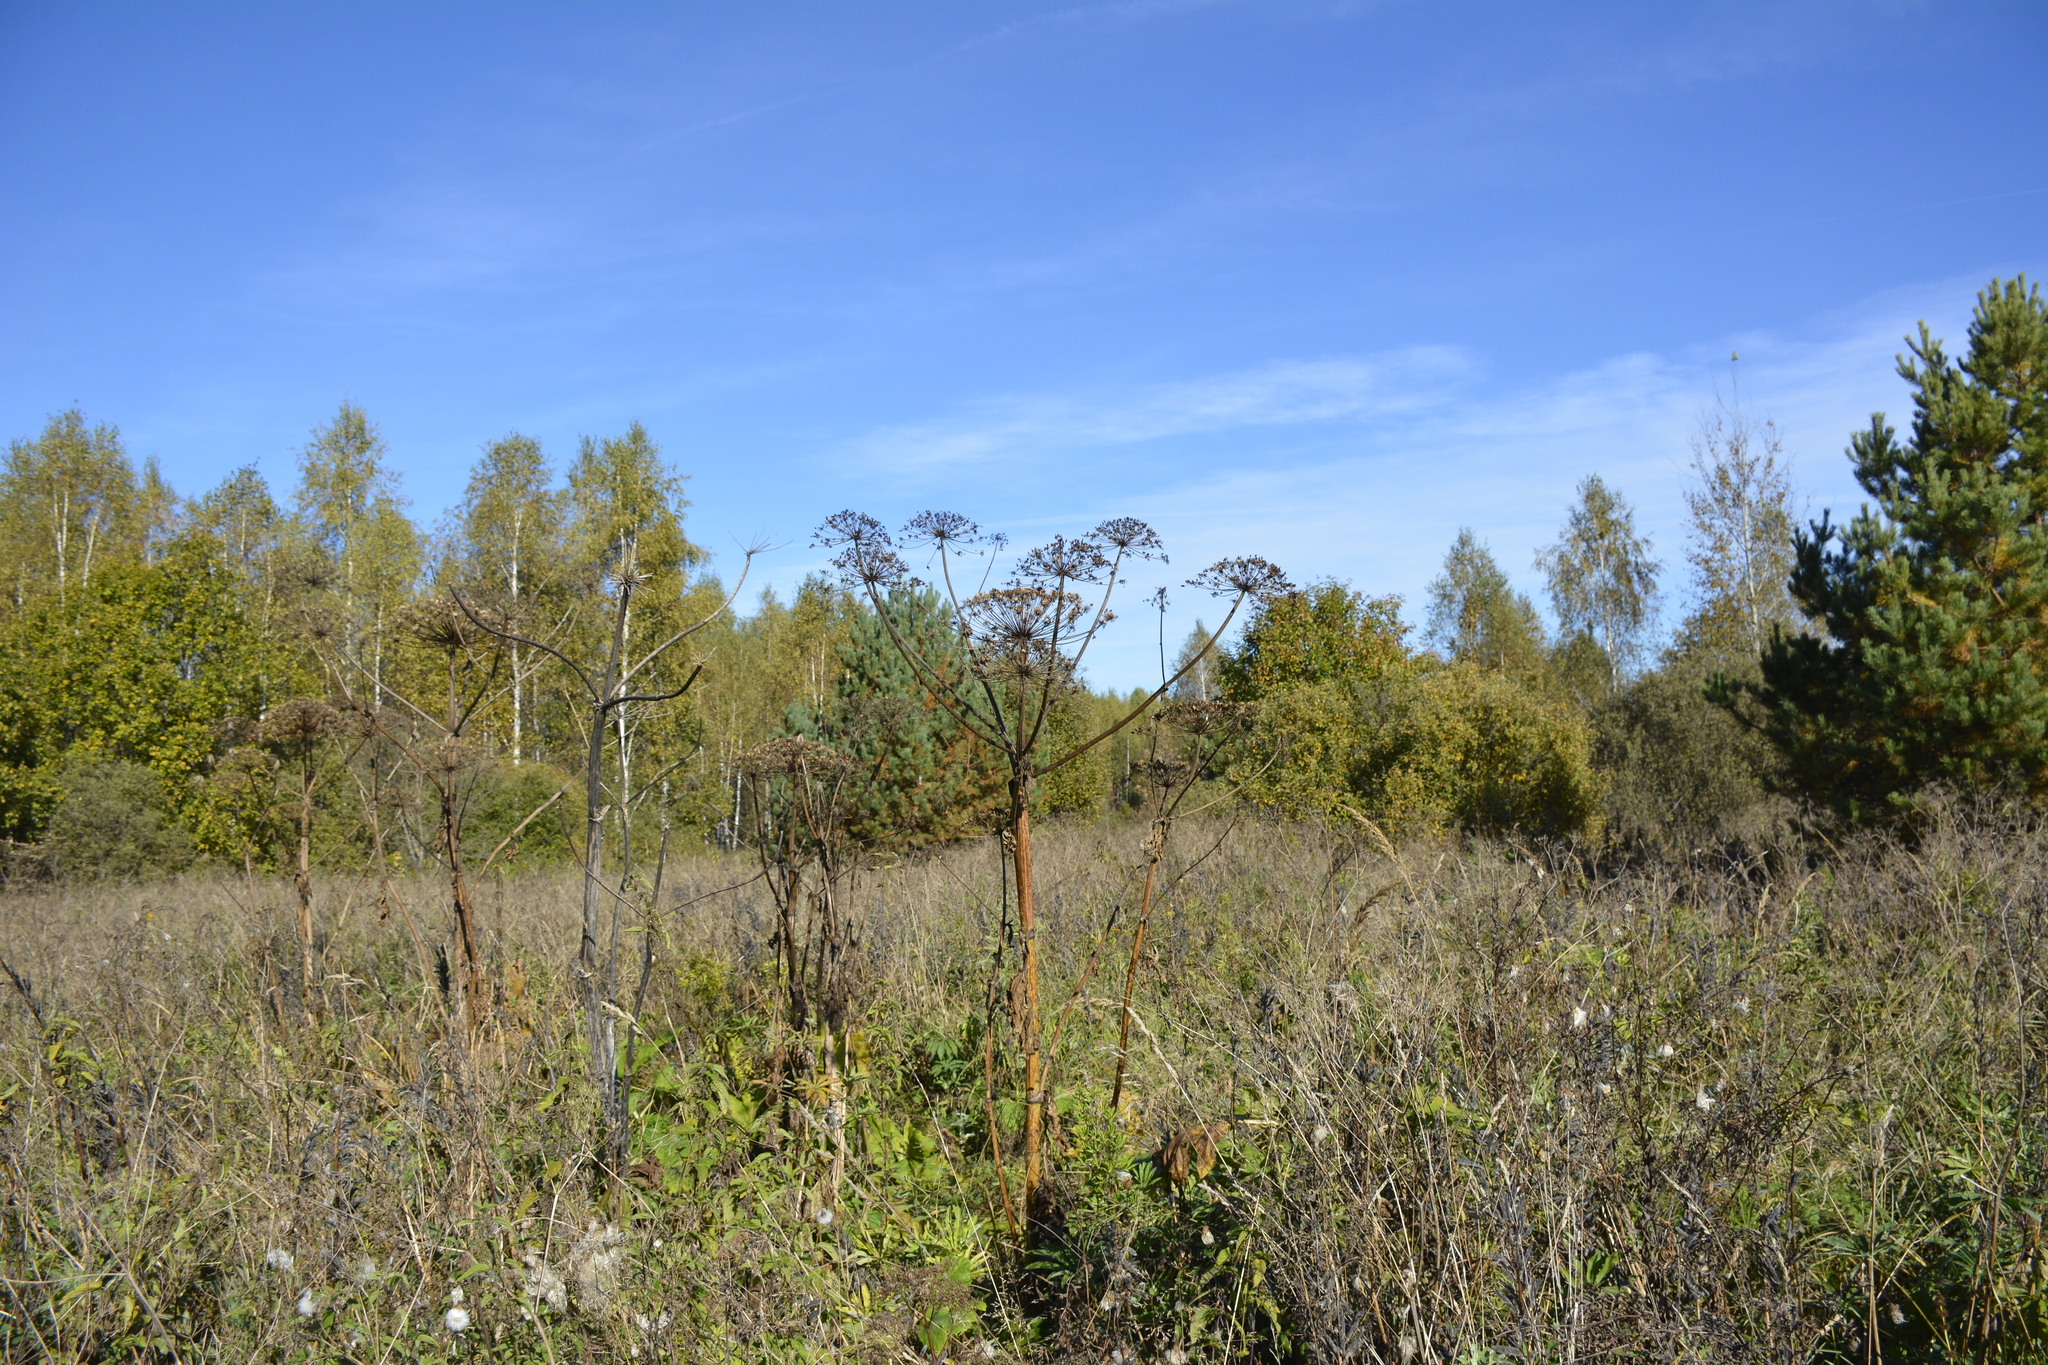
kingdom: Plantae
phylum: Tracheophyta
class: Magnoliopsida
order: Apiales
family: Apiaceae
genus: Heracleum
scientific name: Heracleum sosnowskyi
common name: Sosnowsky's hogweed
